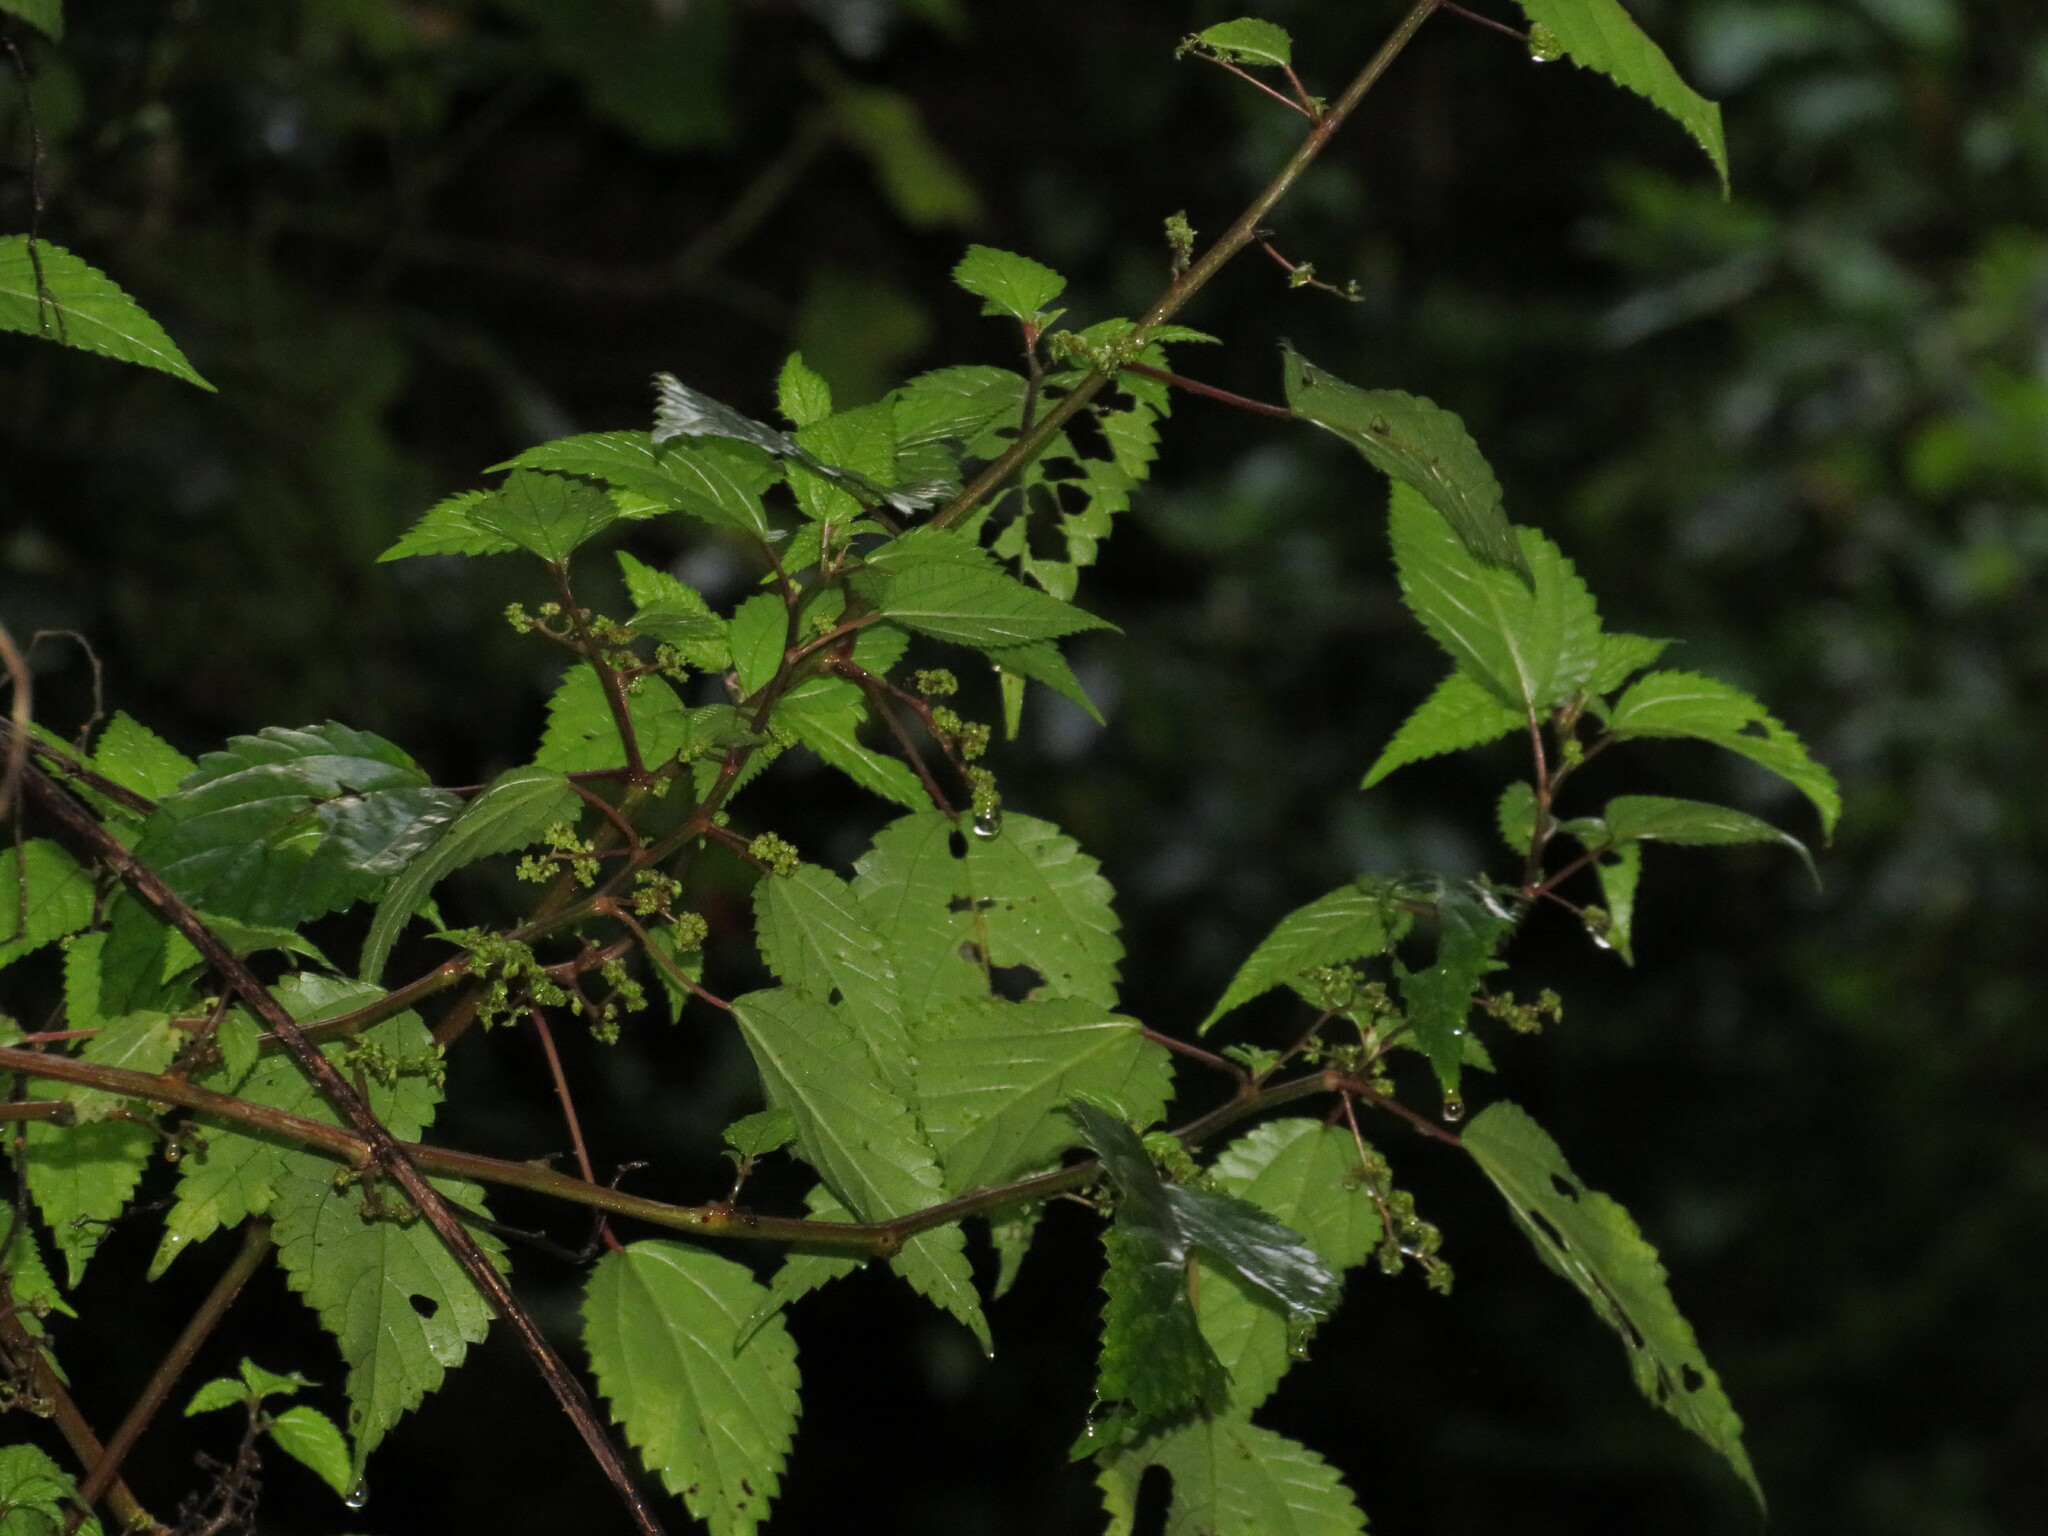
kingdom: Plantae
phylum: Tracheophyta
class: Magnoliopsida
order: Rosales
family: Urticaceae
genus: Laportea
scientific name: Laportea peduncularis
